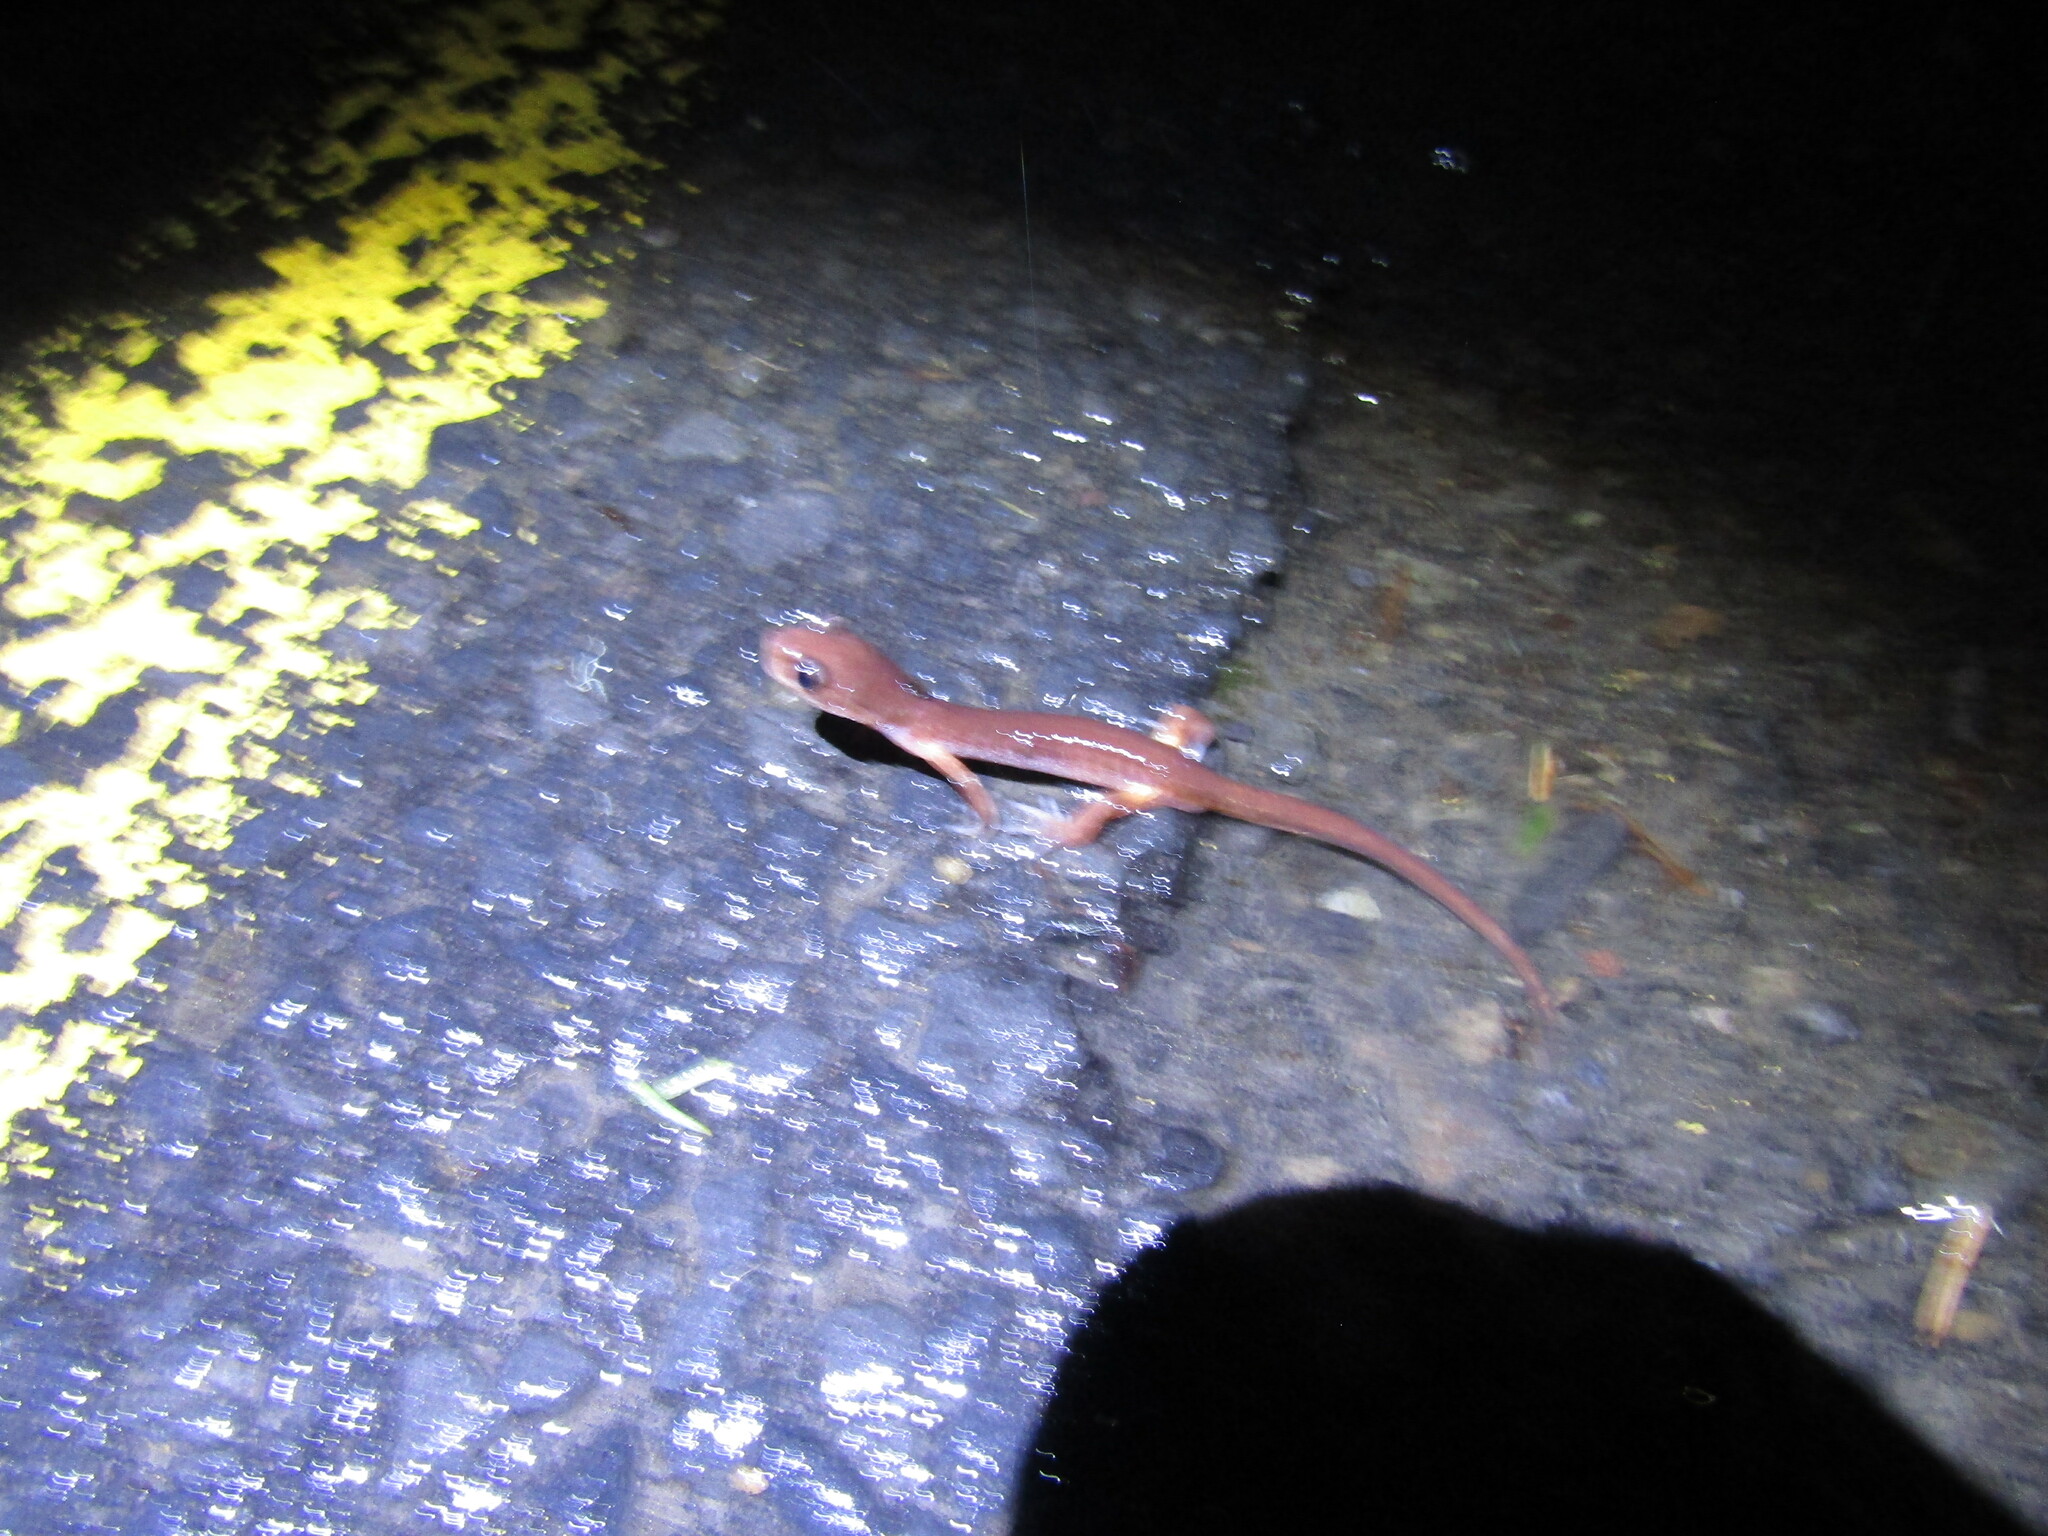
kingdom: Animalia
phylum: Chordata
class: Amphibia
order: Caudata
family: Plethodontidae
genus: Ensatina
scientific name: Ensatina eschscholtzii
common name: Ensatina
